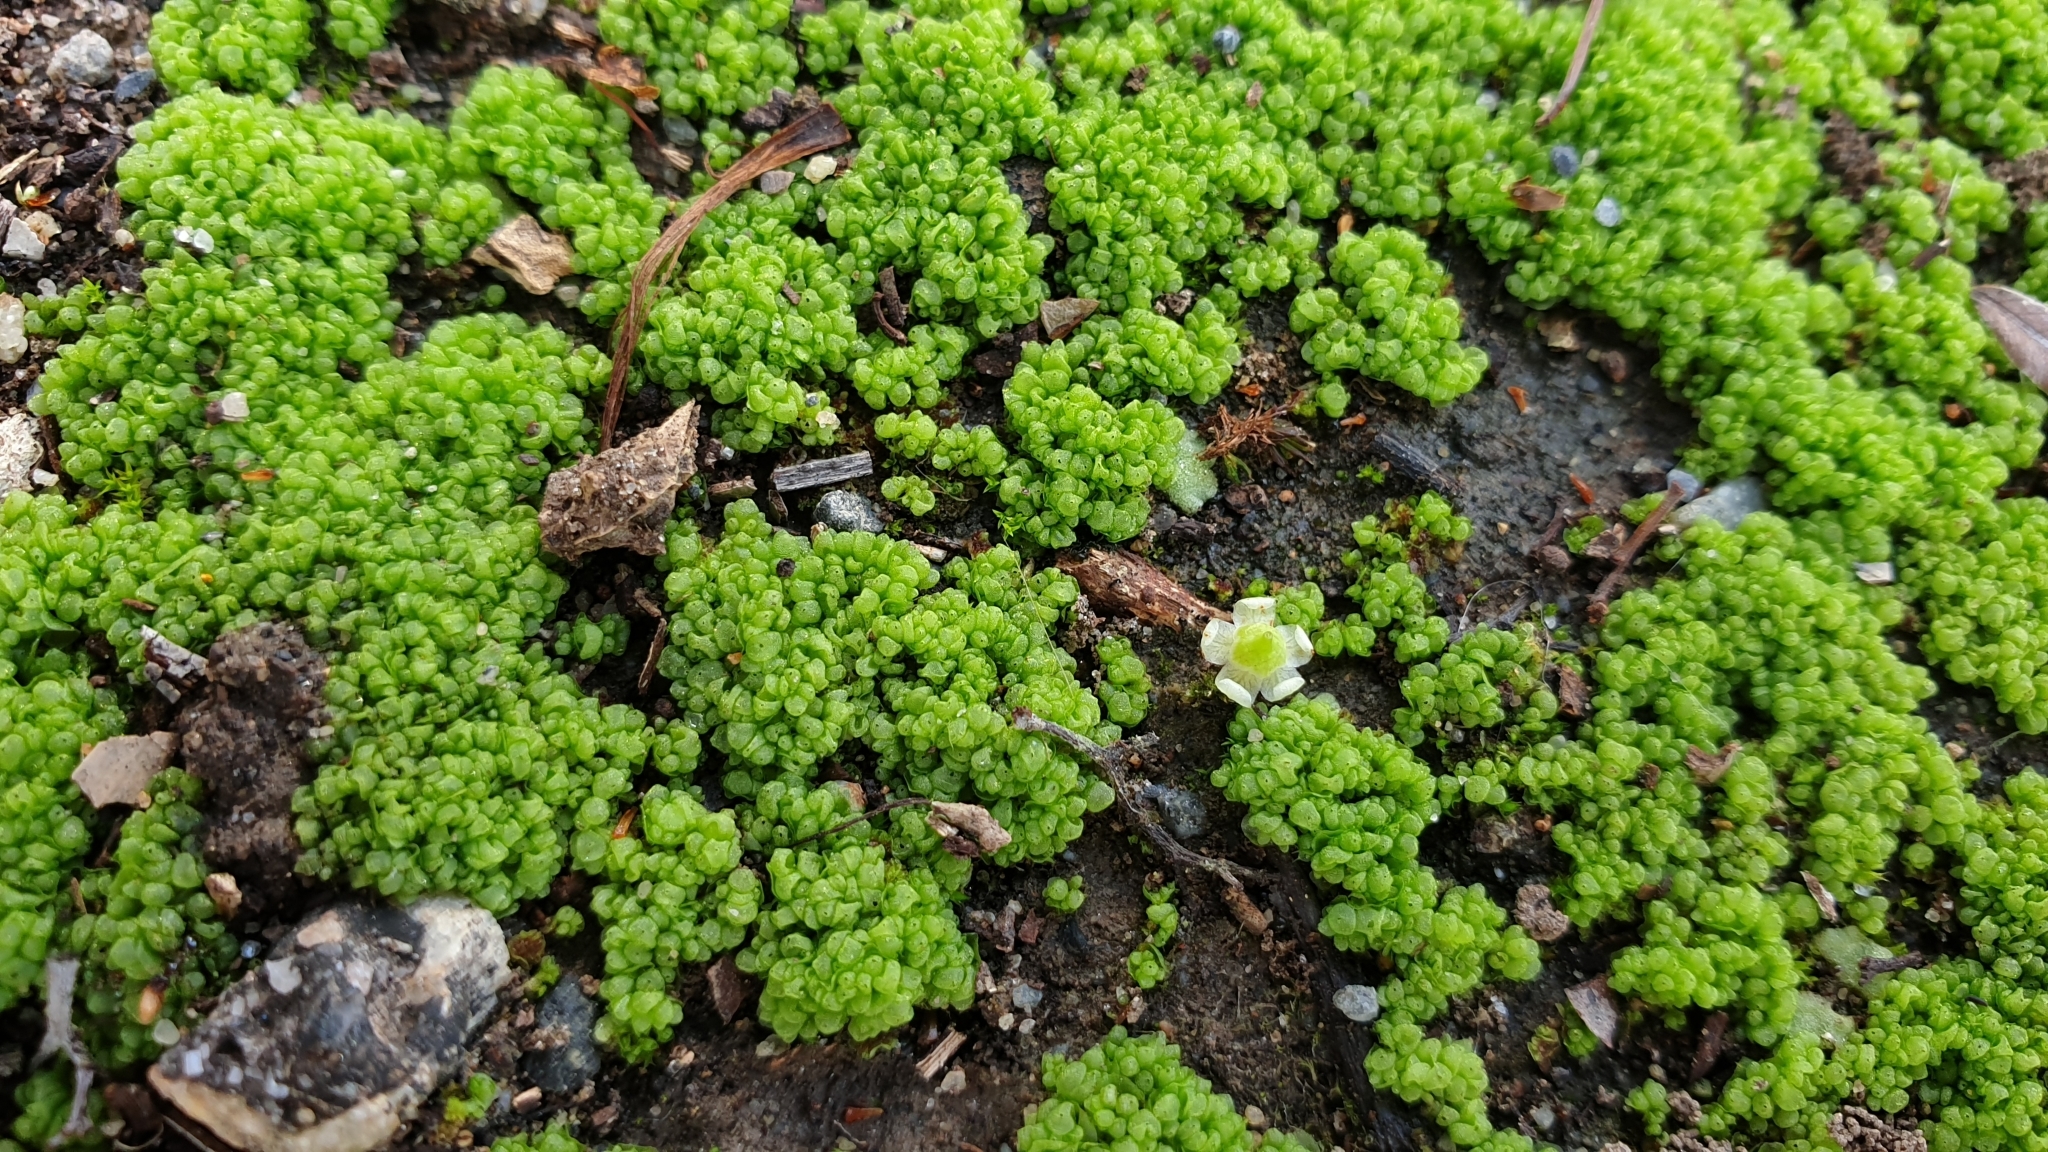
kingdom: Plantae
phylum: Marchantiophyta
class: Marchantiopsida
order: Sphaerocarpales
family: Sphaerocarpaceae
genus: Sphaerocarpos
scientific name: Sphaerocarpos texanus
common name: Texas balloonwort
